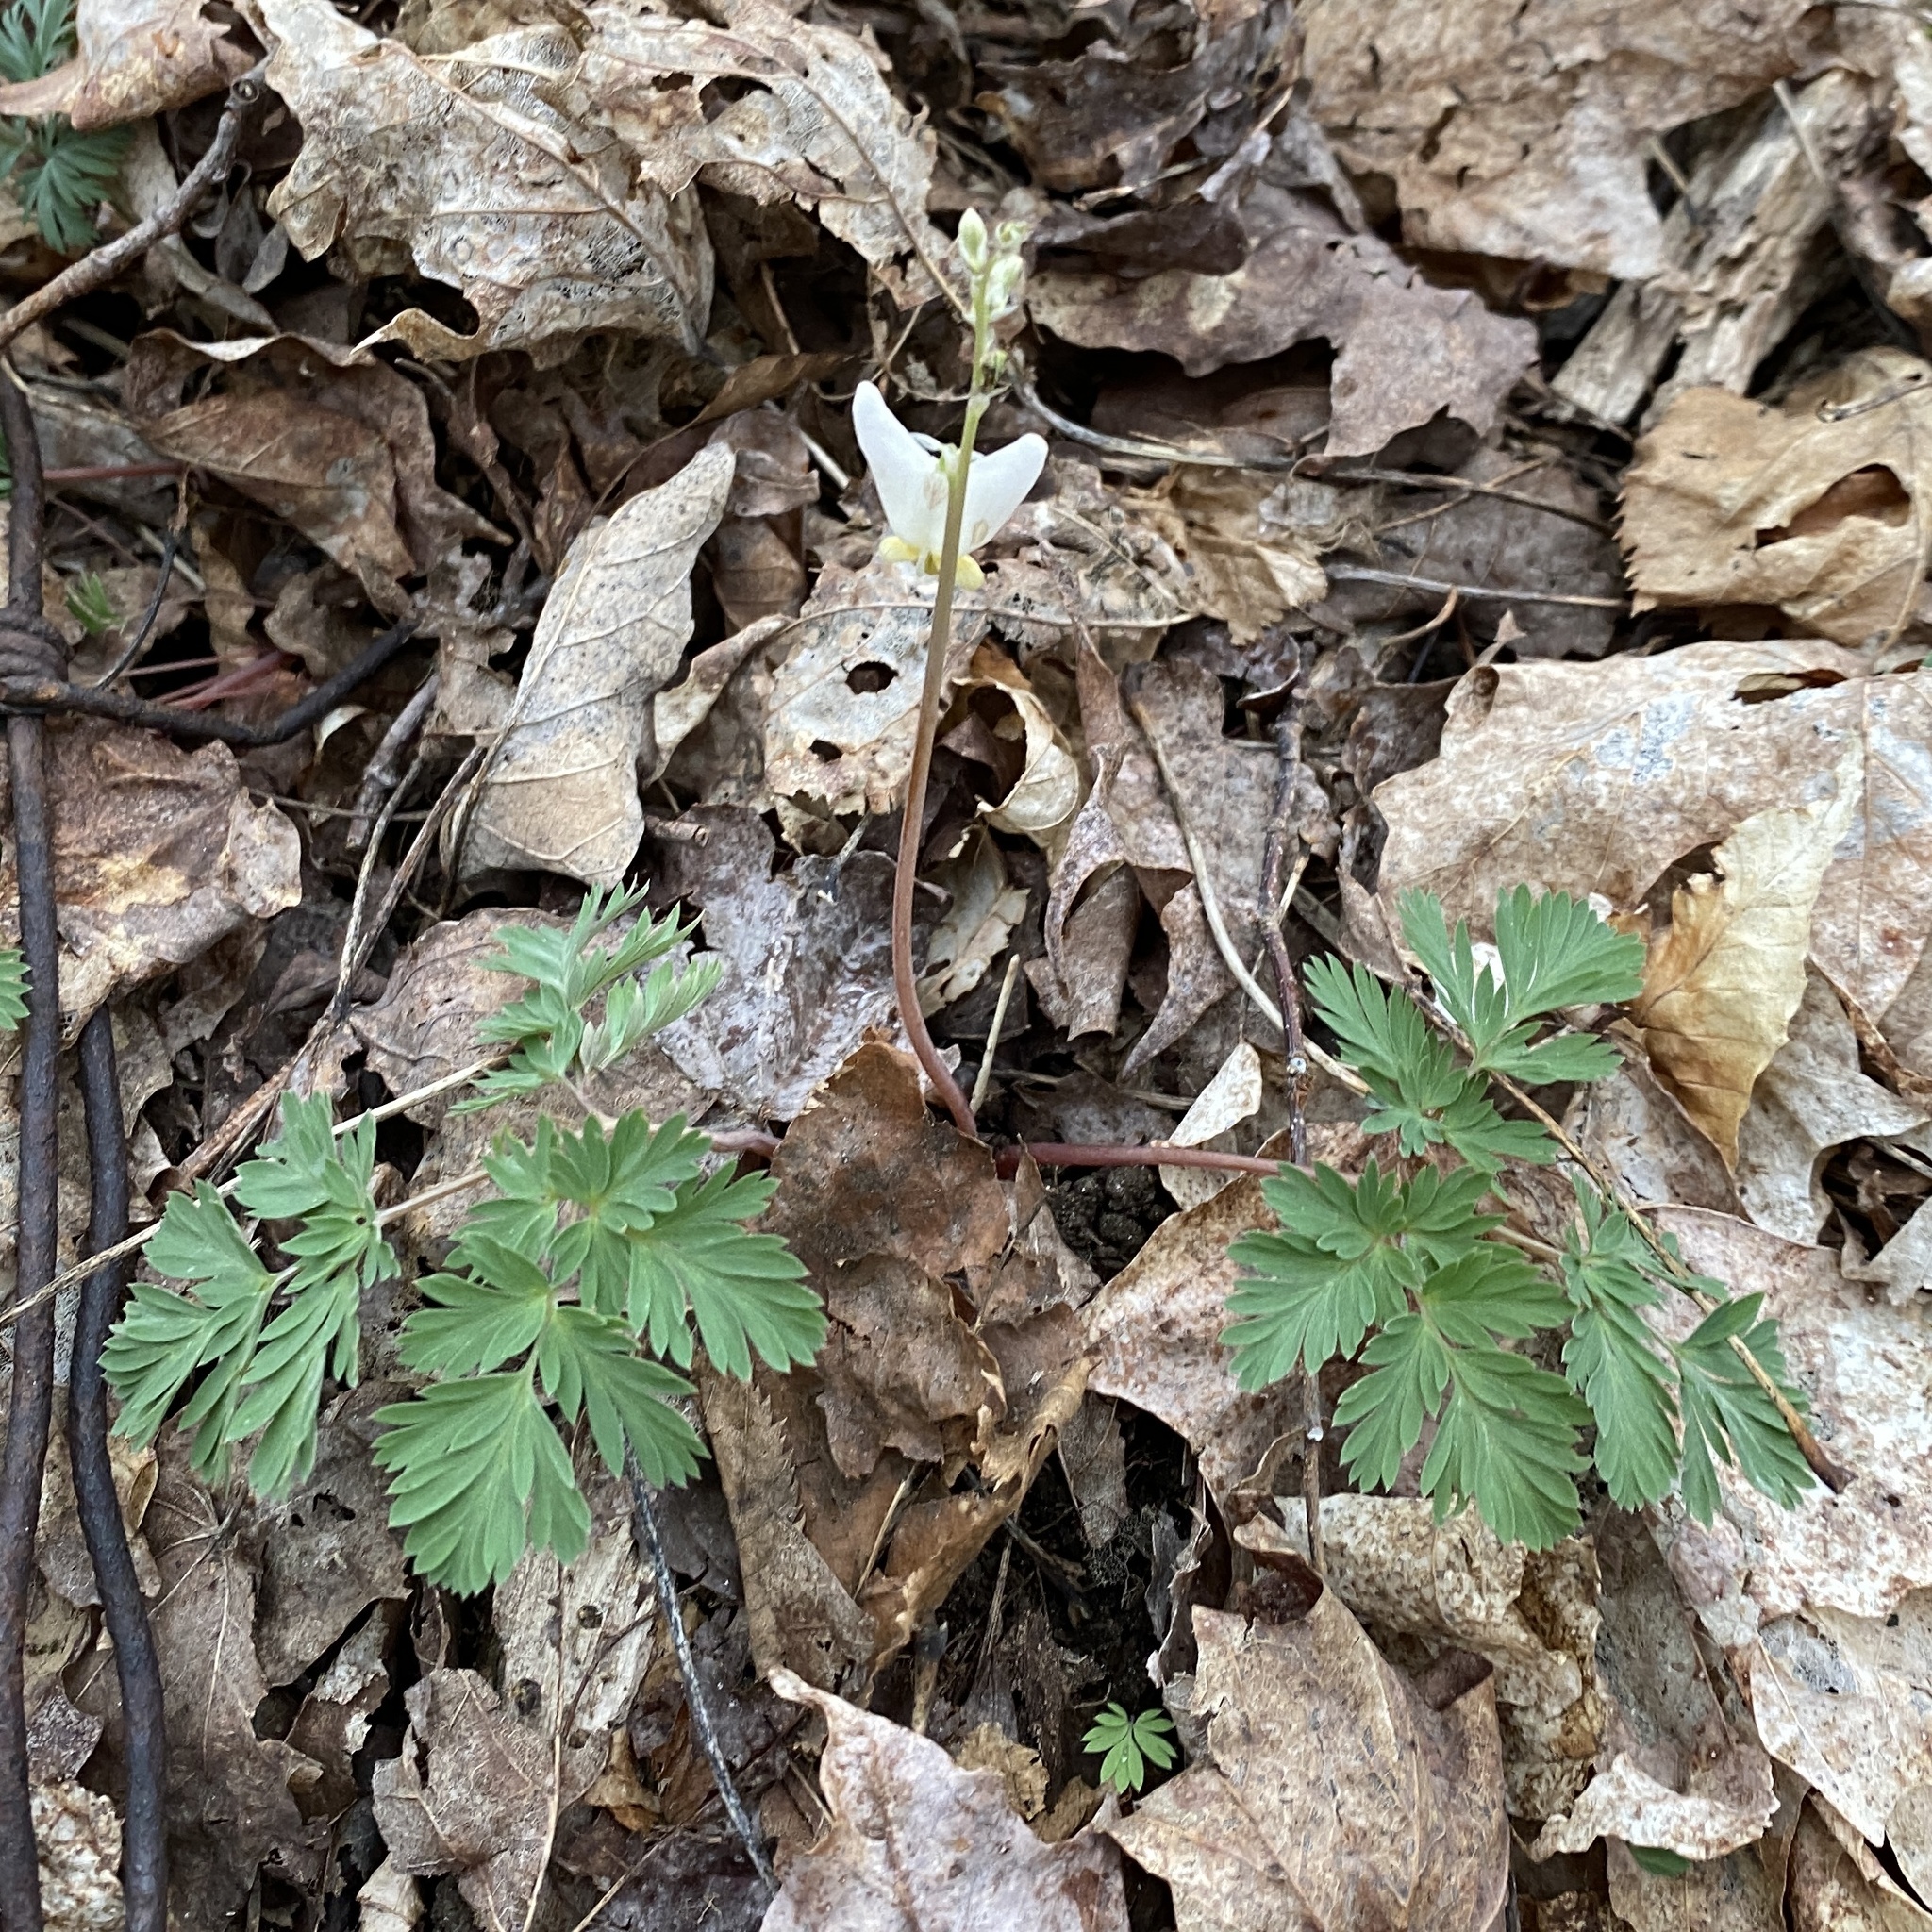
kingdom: Plantae
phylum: Tracheophyta
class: Magnoliopsida
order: Ranunculales
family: Papaveraceae
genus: Dicentra
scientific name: Dicentra cucullaria
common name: Dutchman's breeches
